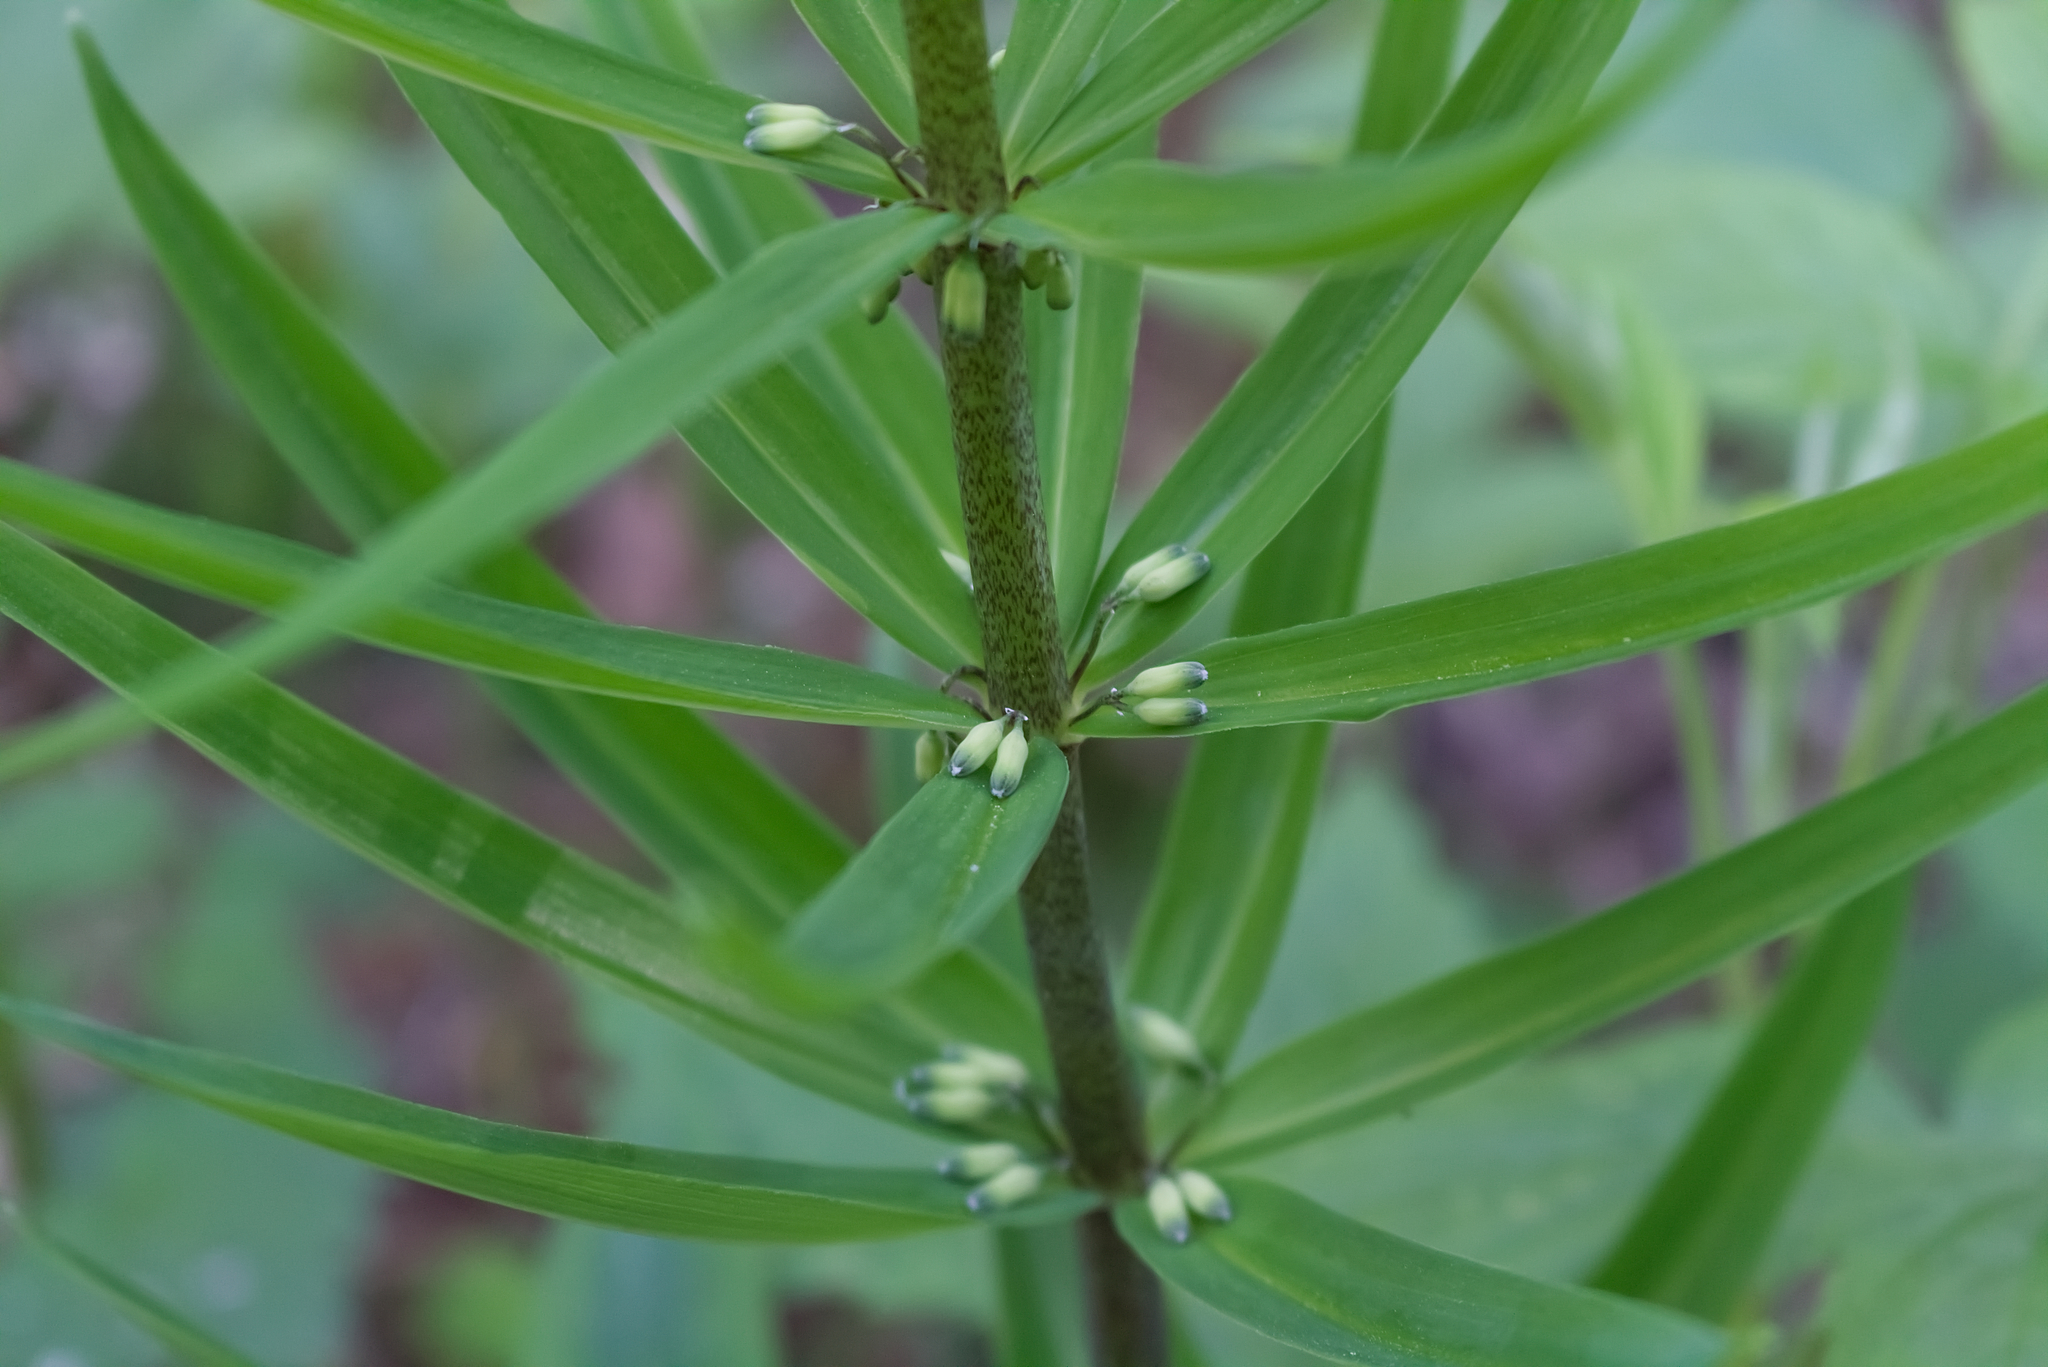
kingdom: Plantae
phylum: Tracheophyta
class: Liliopsida
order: Asparagales
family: Asparagaceae
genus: Polygonatum
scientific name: Polygonatum verticillatum
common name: Whorled solomon's-seal
